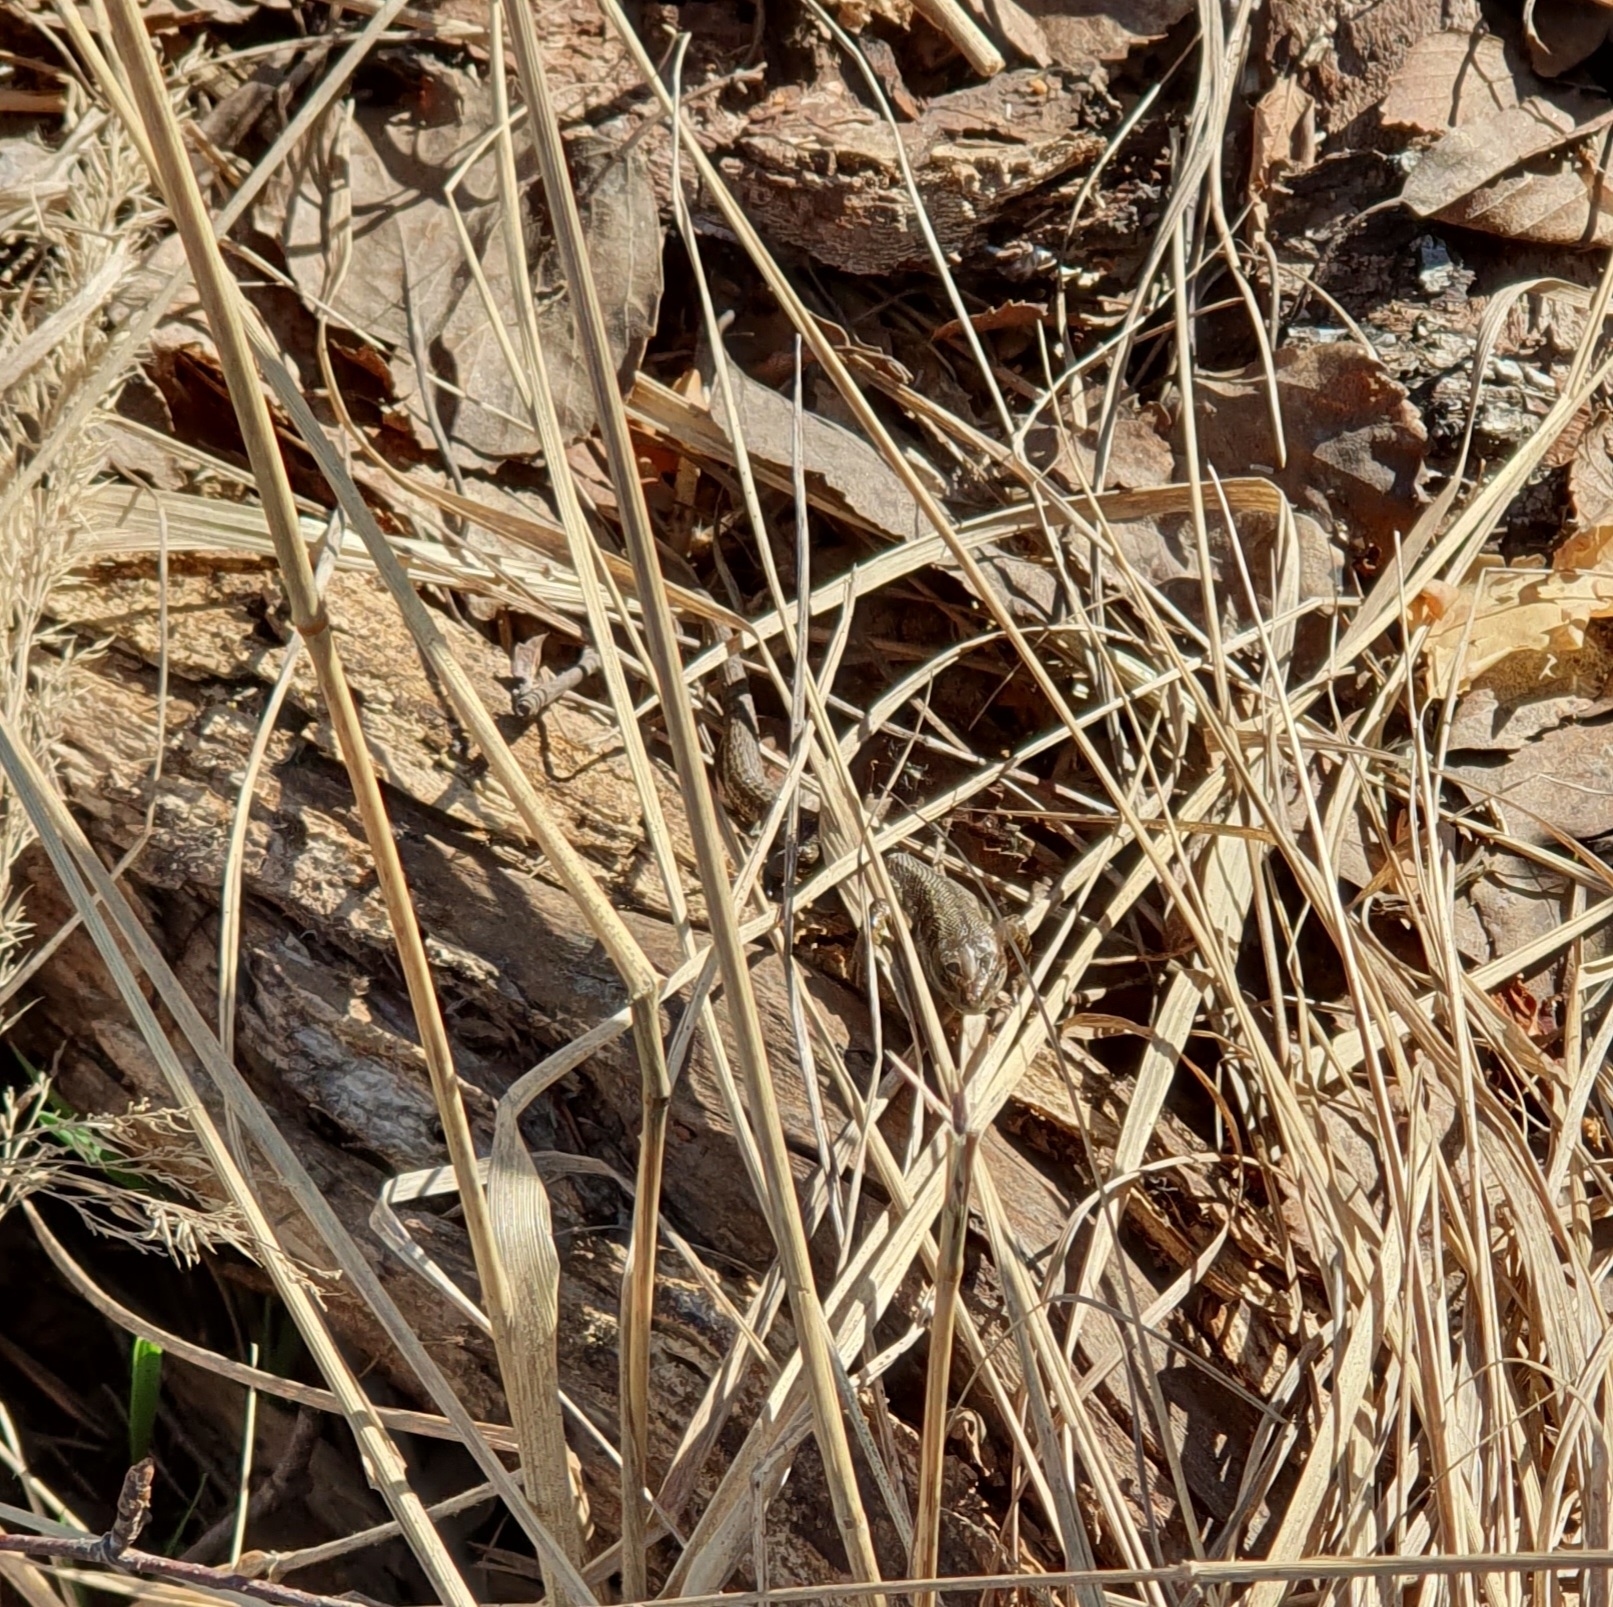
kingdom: Animalia
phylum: Chordata
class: Squamata
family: Lacertidae
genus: Zootoca
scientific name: Zootoca vivipara
